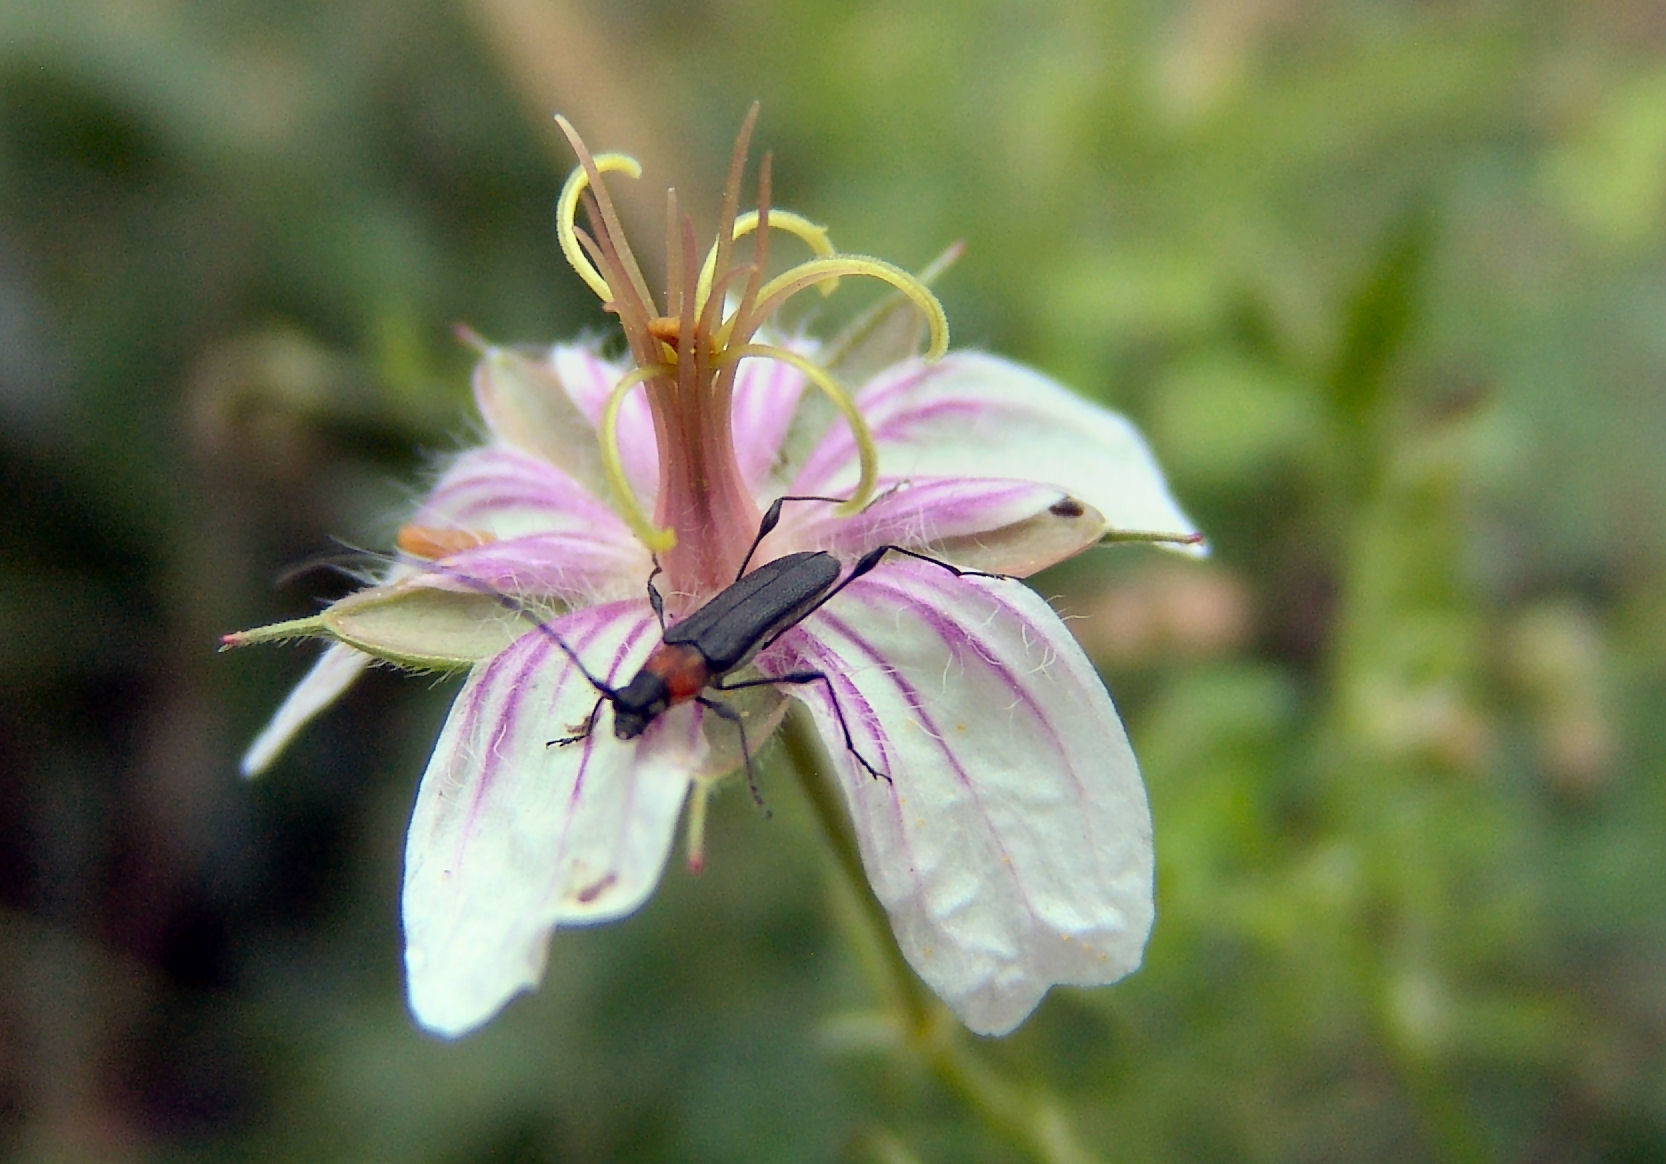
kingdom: Plantae
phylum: Tracheophyta
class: Magnoliopsida
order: Geraniales
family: Geraniaceae
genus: Geranium
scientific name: Geranium caespitosum
